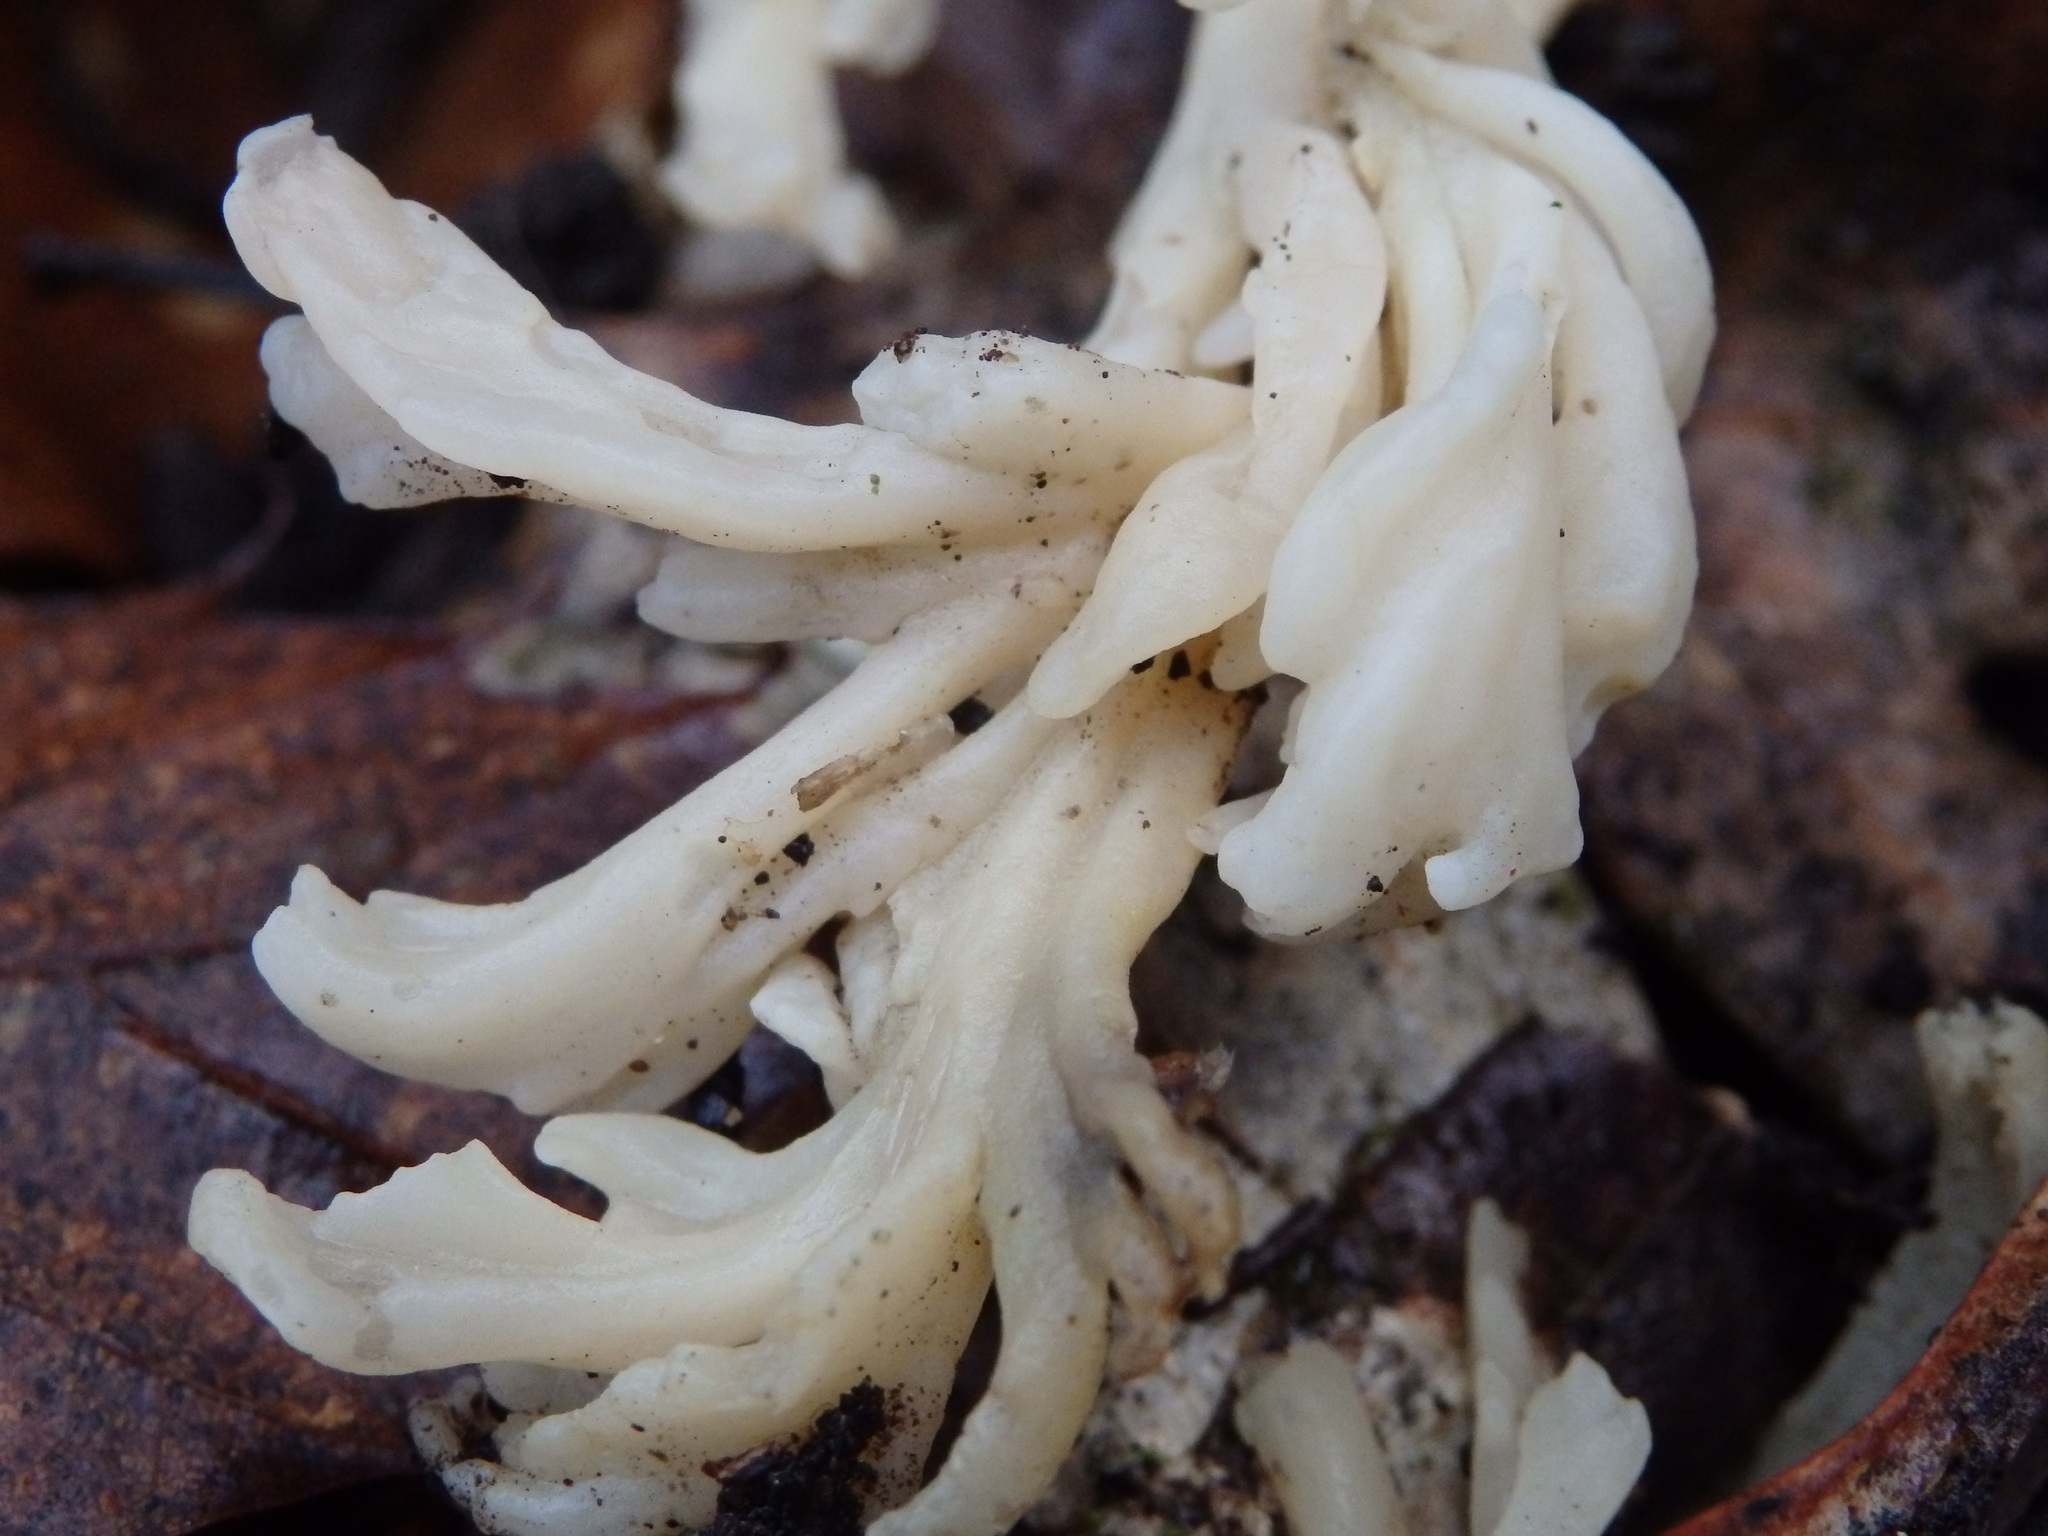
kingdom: Fungi
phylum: Basidiomycota
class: Agaricomycetes
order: Cantharellales
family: Hydnaceae
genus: Clavulina
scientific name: Clavulina rugosa
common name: Wrinkled club
